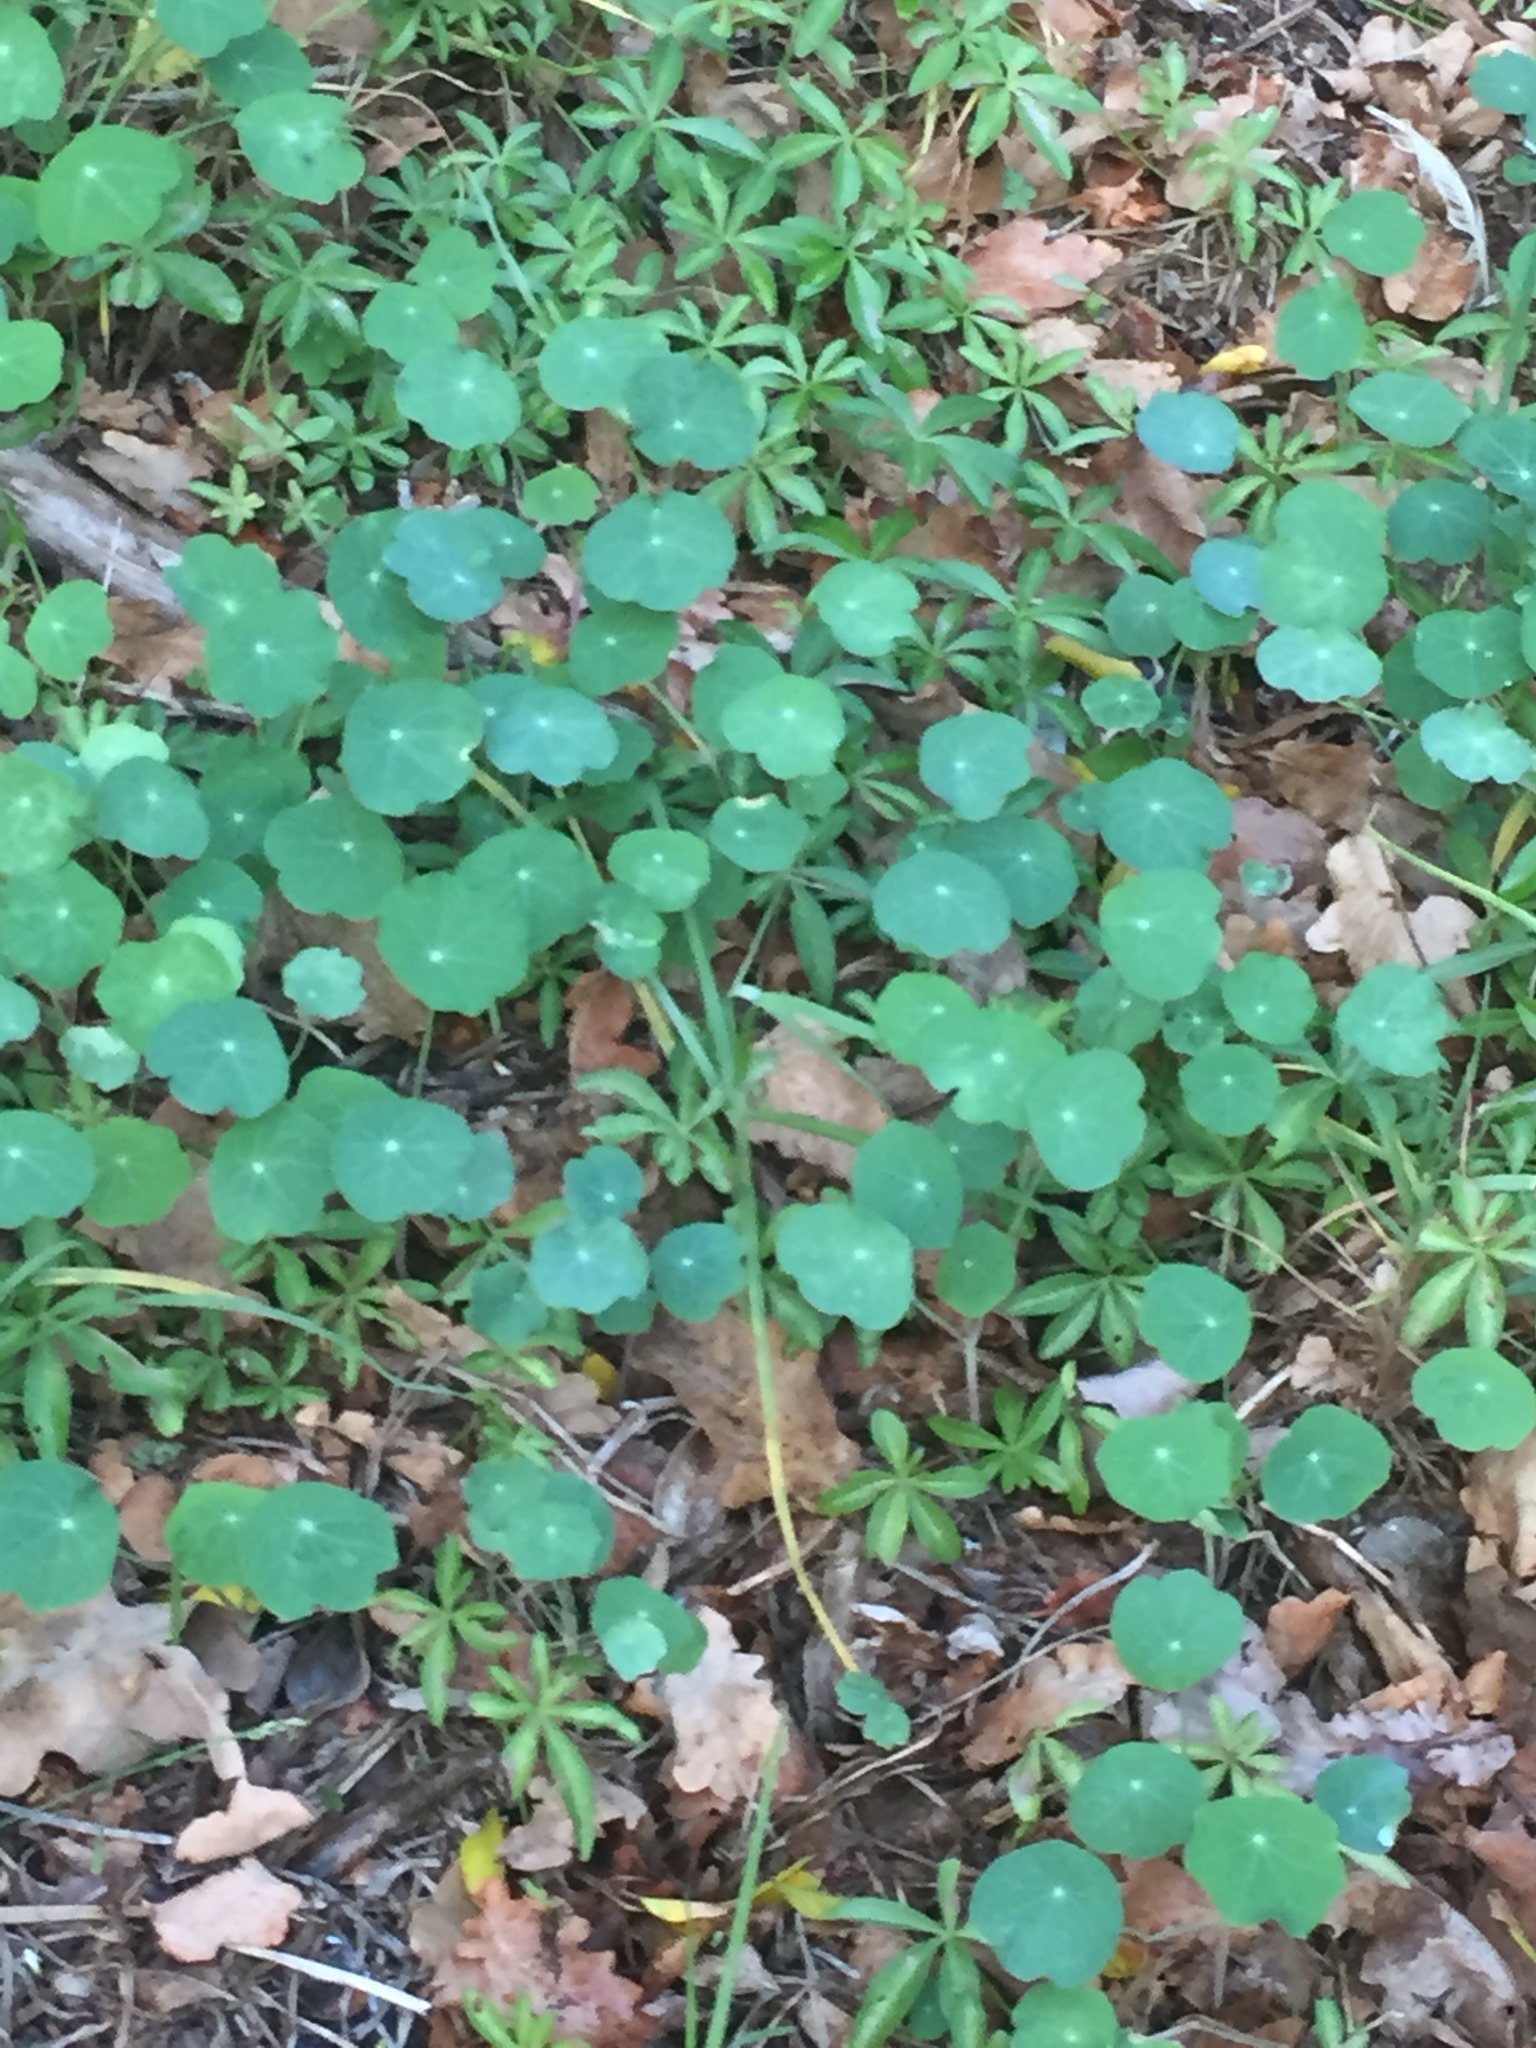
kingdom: Plantae
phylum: Tracheophyta
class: Magnoliopsida
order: Brassicales
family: Tropaeolaceae
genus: Tropaeolum
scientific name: Tropaeolum majus
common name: Nasturtium
